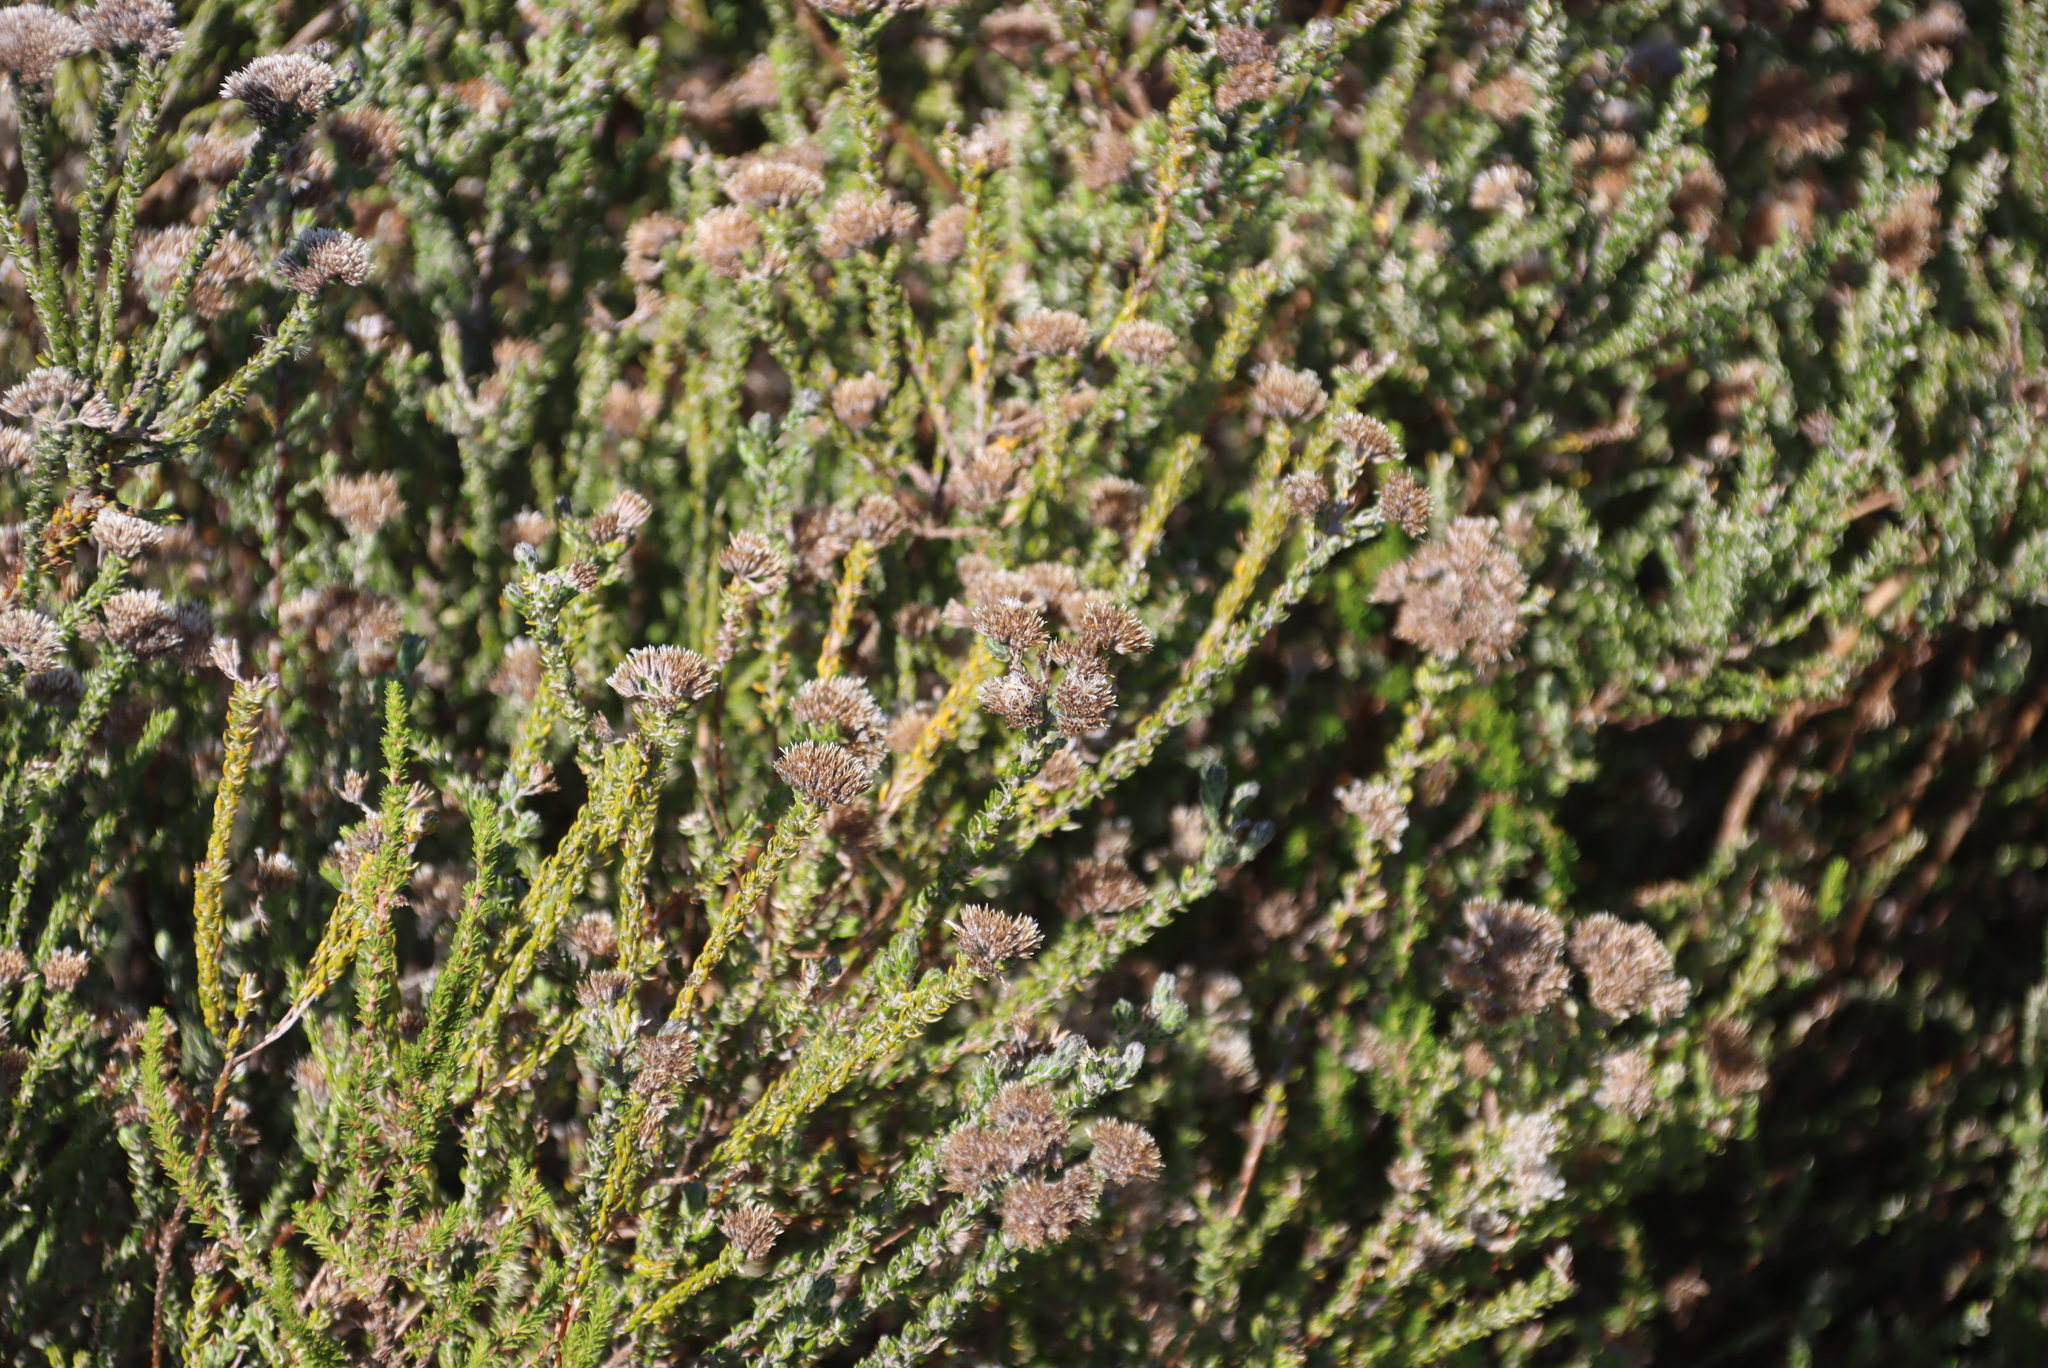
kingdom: Plantae
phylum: Tracheophyta
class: Magnoliopsida
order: Asterales
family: Asteraceae
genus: Metalasia
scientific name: Metalasia pungens
